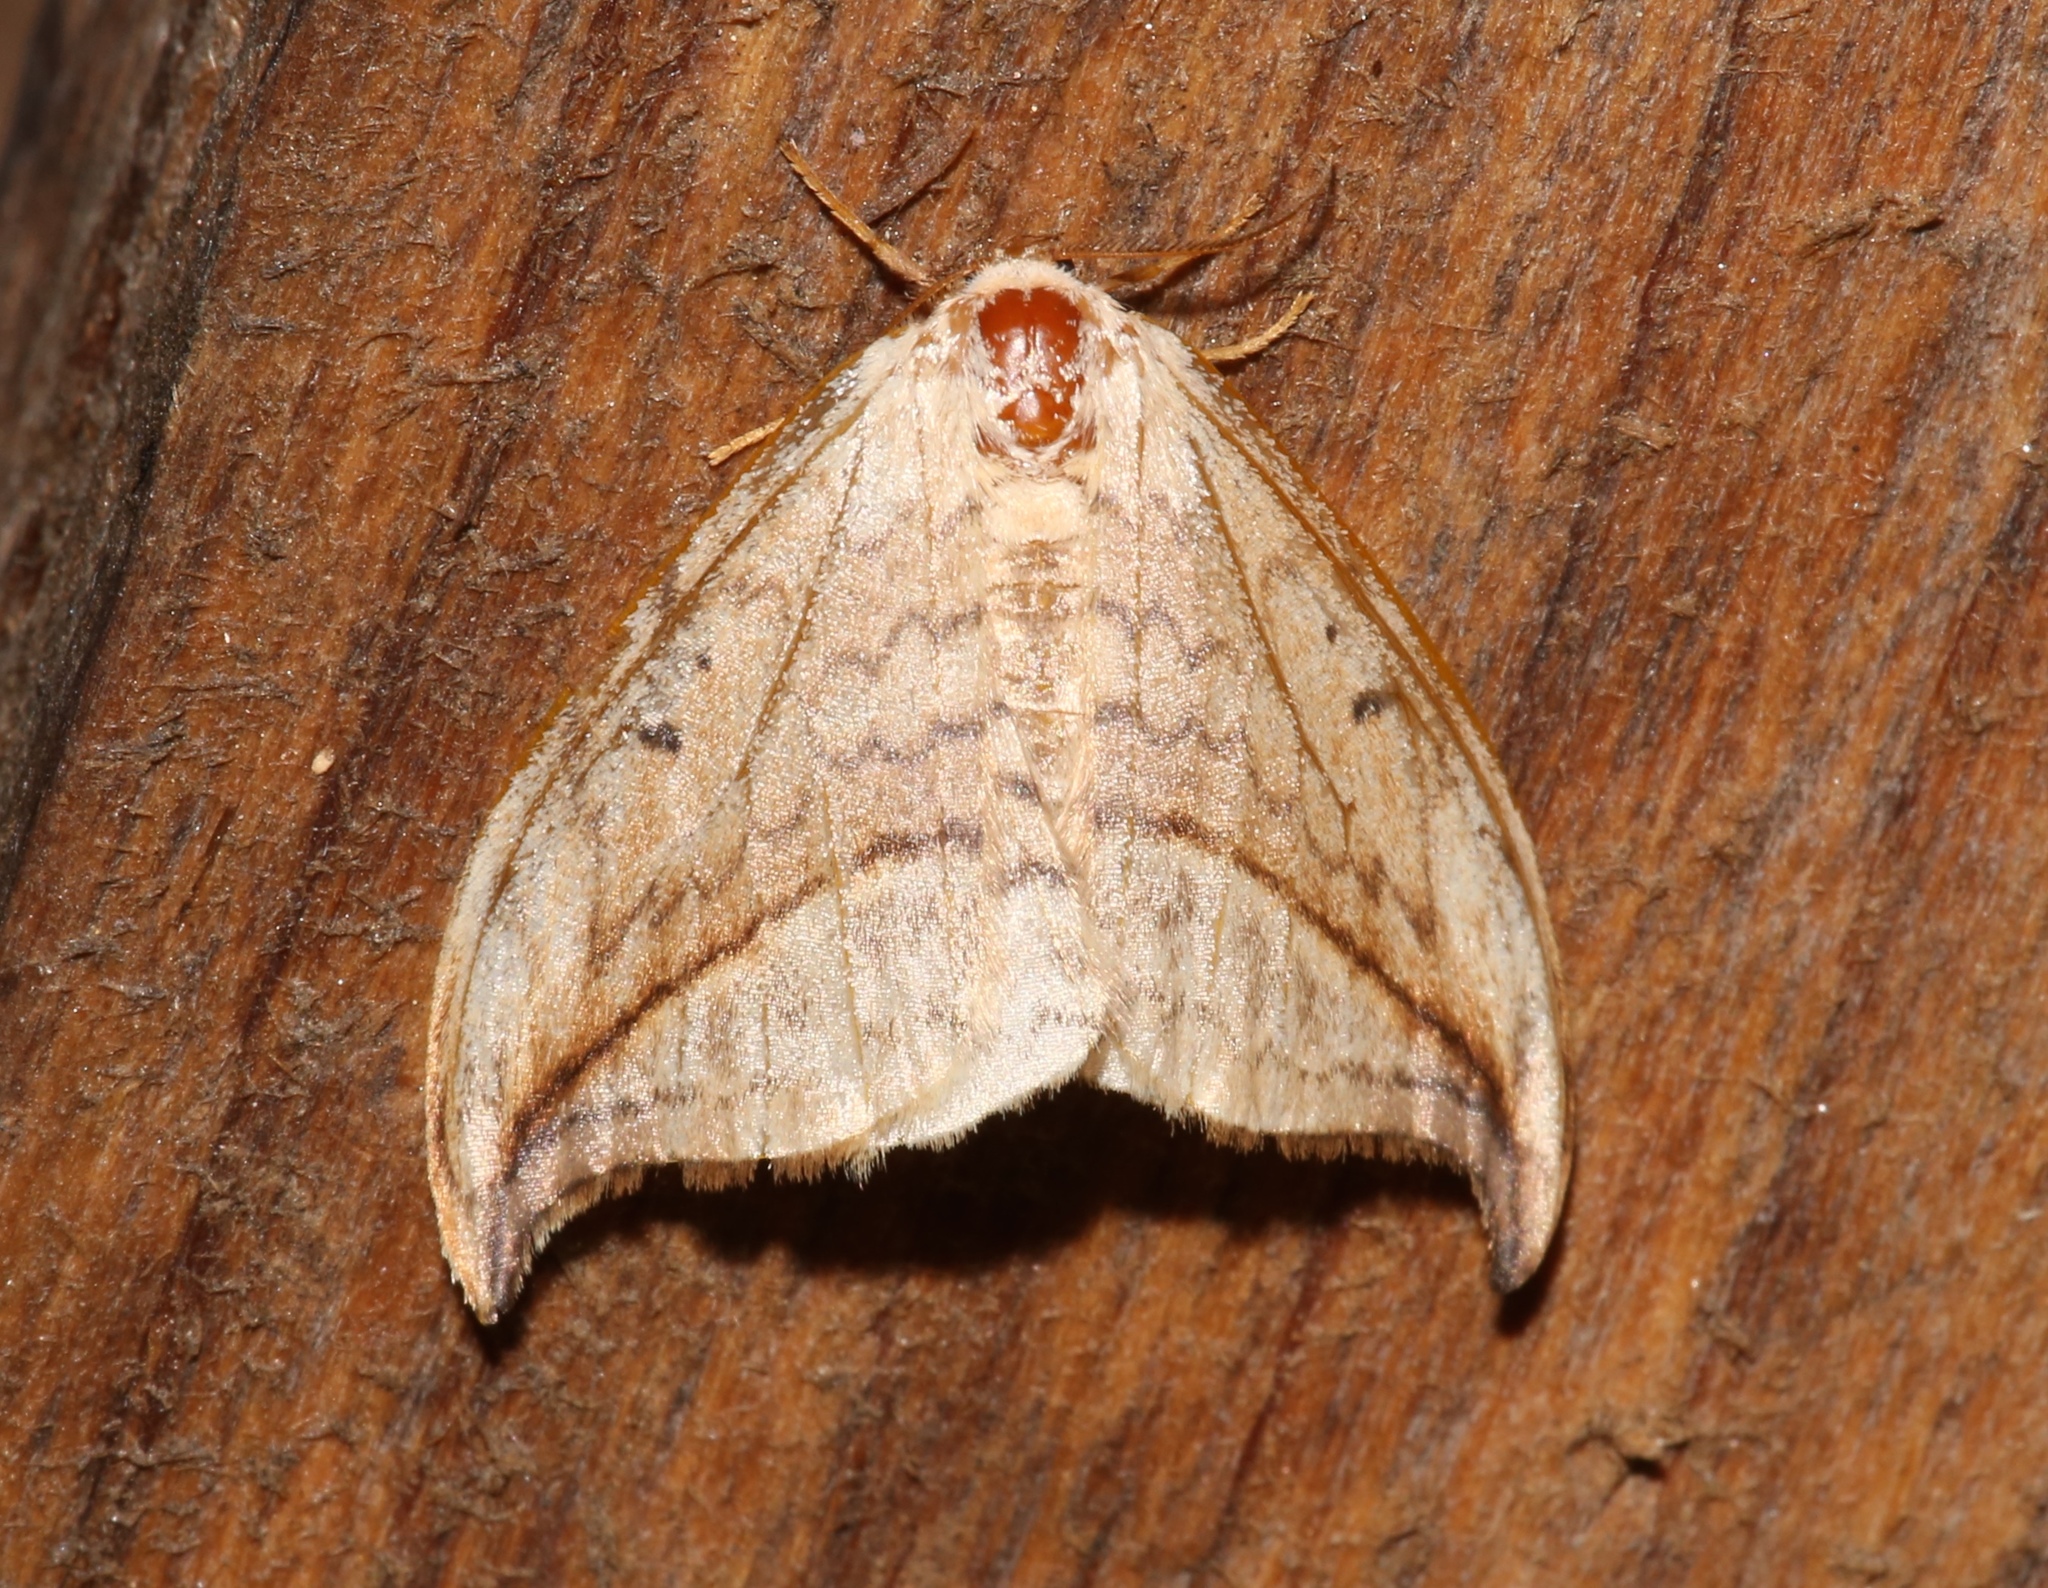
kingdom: Animalia
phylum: Arthropoda
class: Insecta
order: Lepidoptera
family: Drepanidae
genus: Drepana
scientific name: Drepana arcuata
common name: Arched hooktip moth
